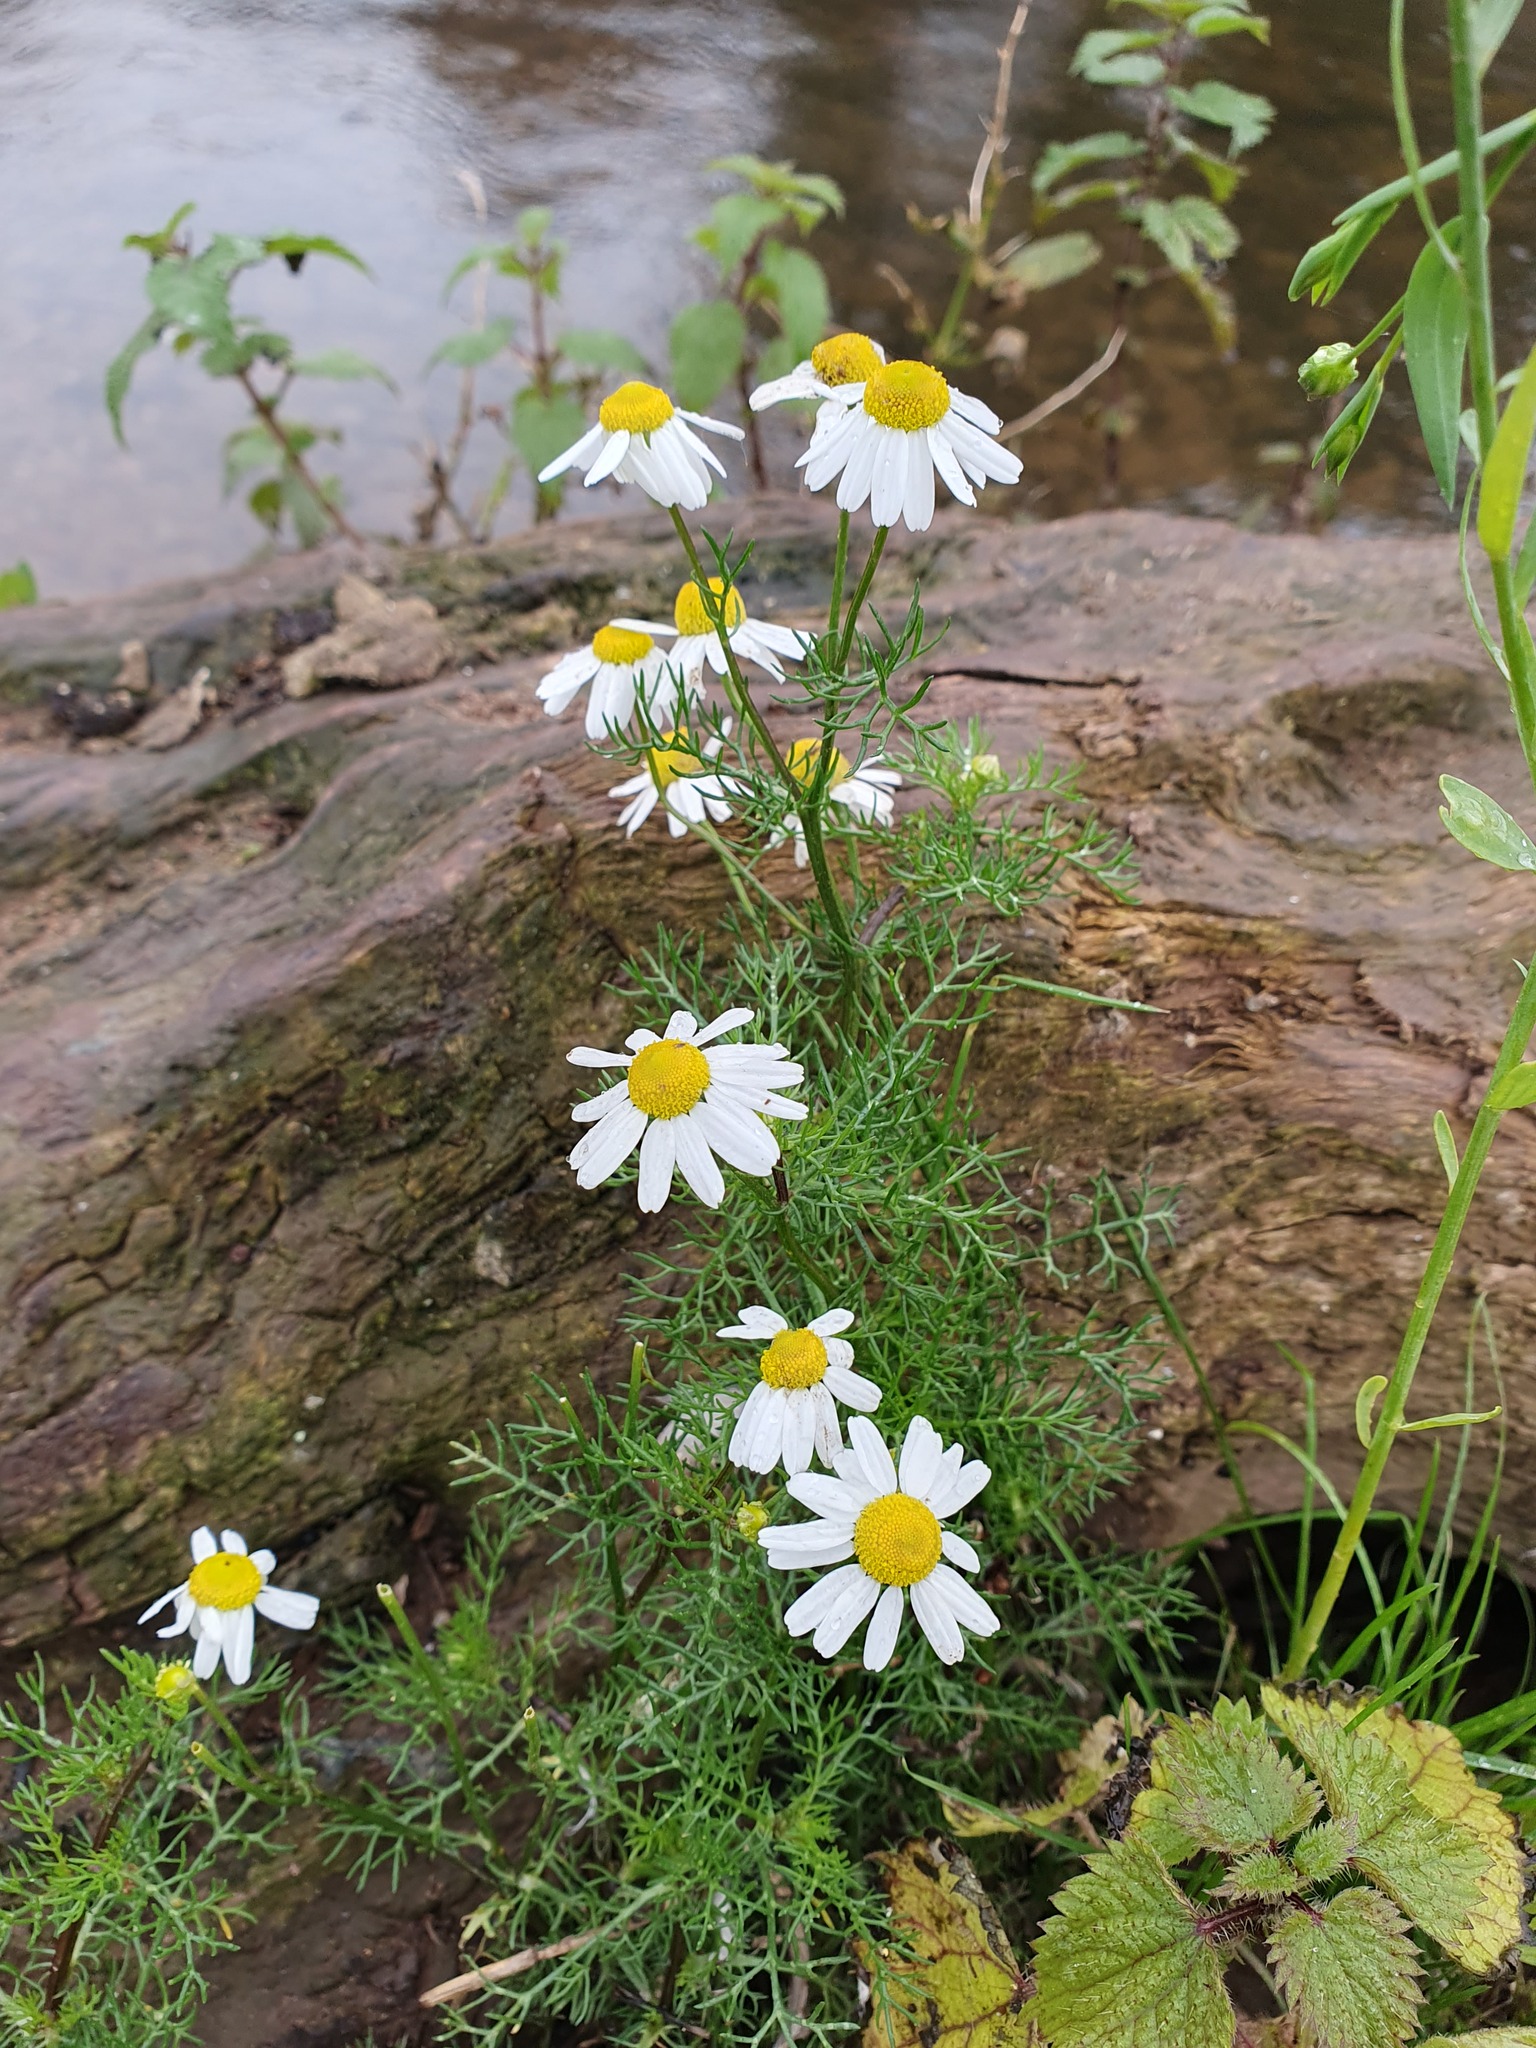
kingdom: Plantae
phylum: Tracheophyta
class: Magnoliopsida
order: Asterales
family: Asteraceae
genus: Tripleurospermum
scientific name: Tripleurospermum inodorum
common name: Scentless mayweed
